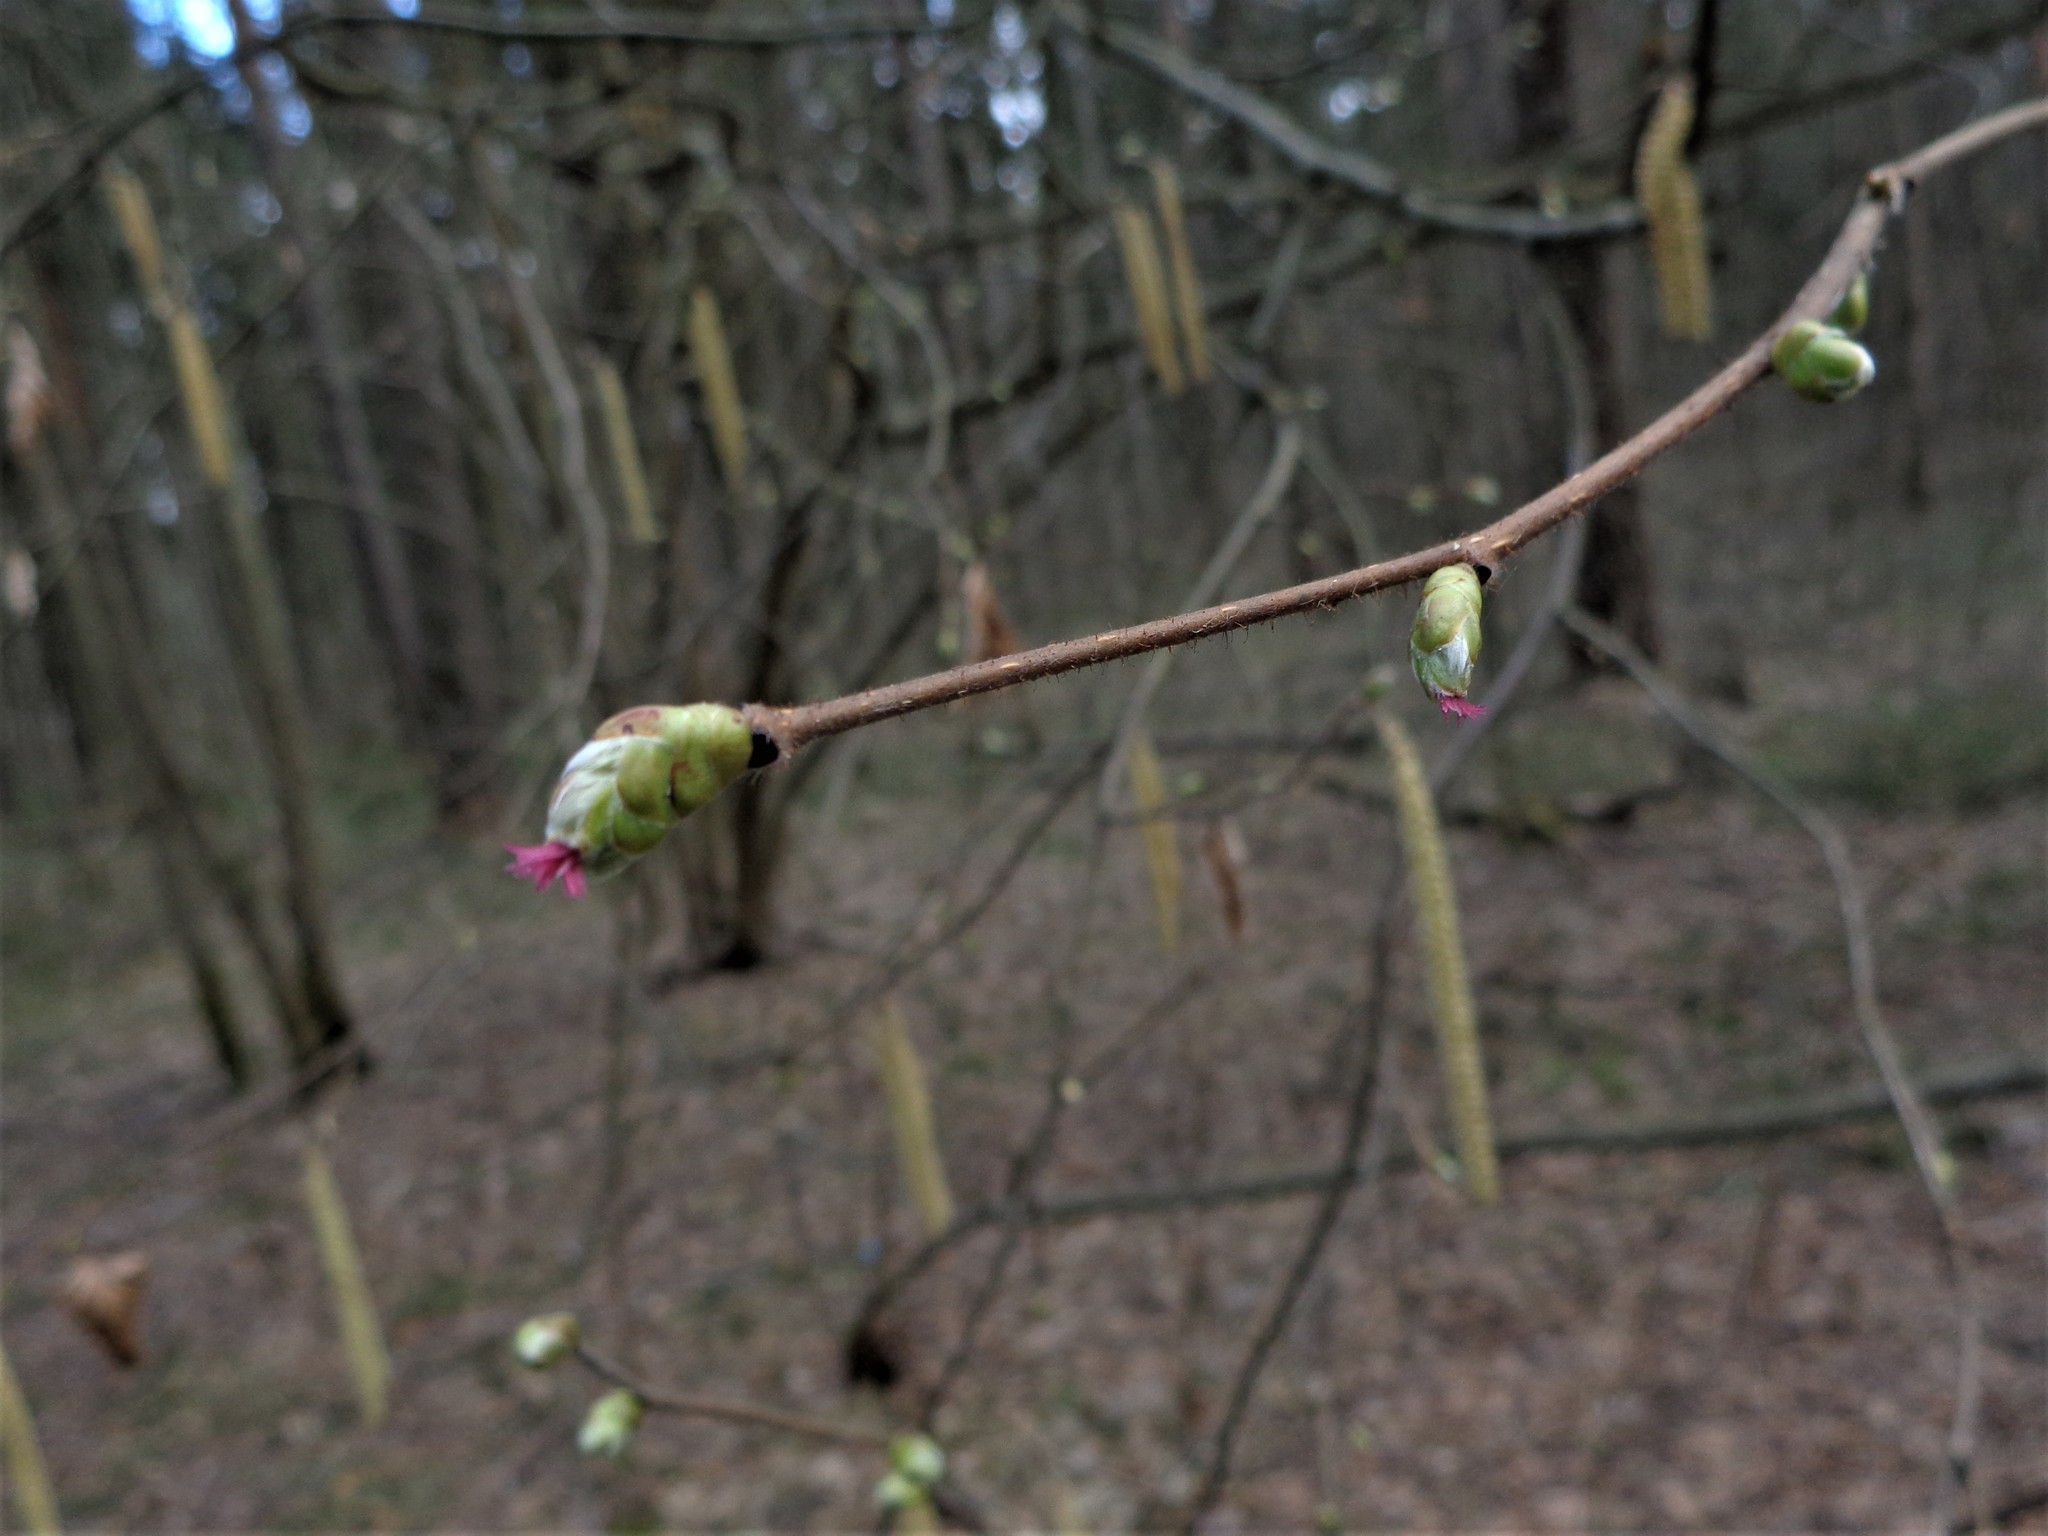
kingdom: Plantae
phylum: Tracheophyta
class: Magnoliopsida
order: Fagales
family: Betulaceae
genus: Corylus
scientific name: Corylus avellana
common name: European hazel
